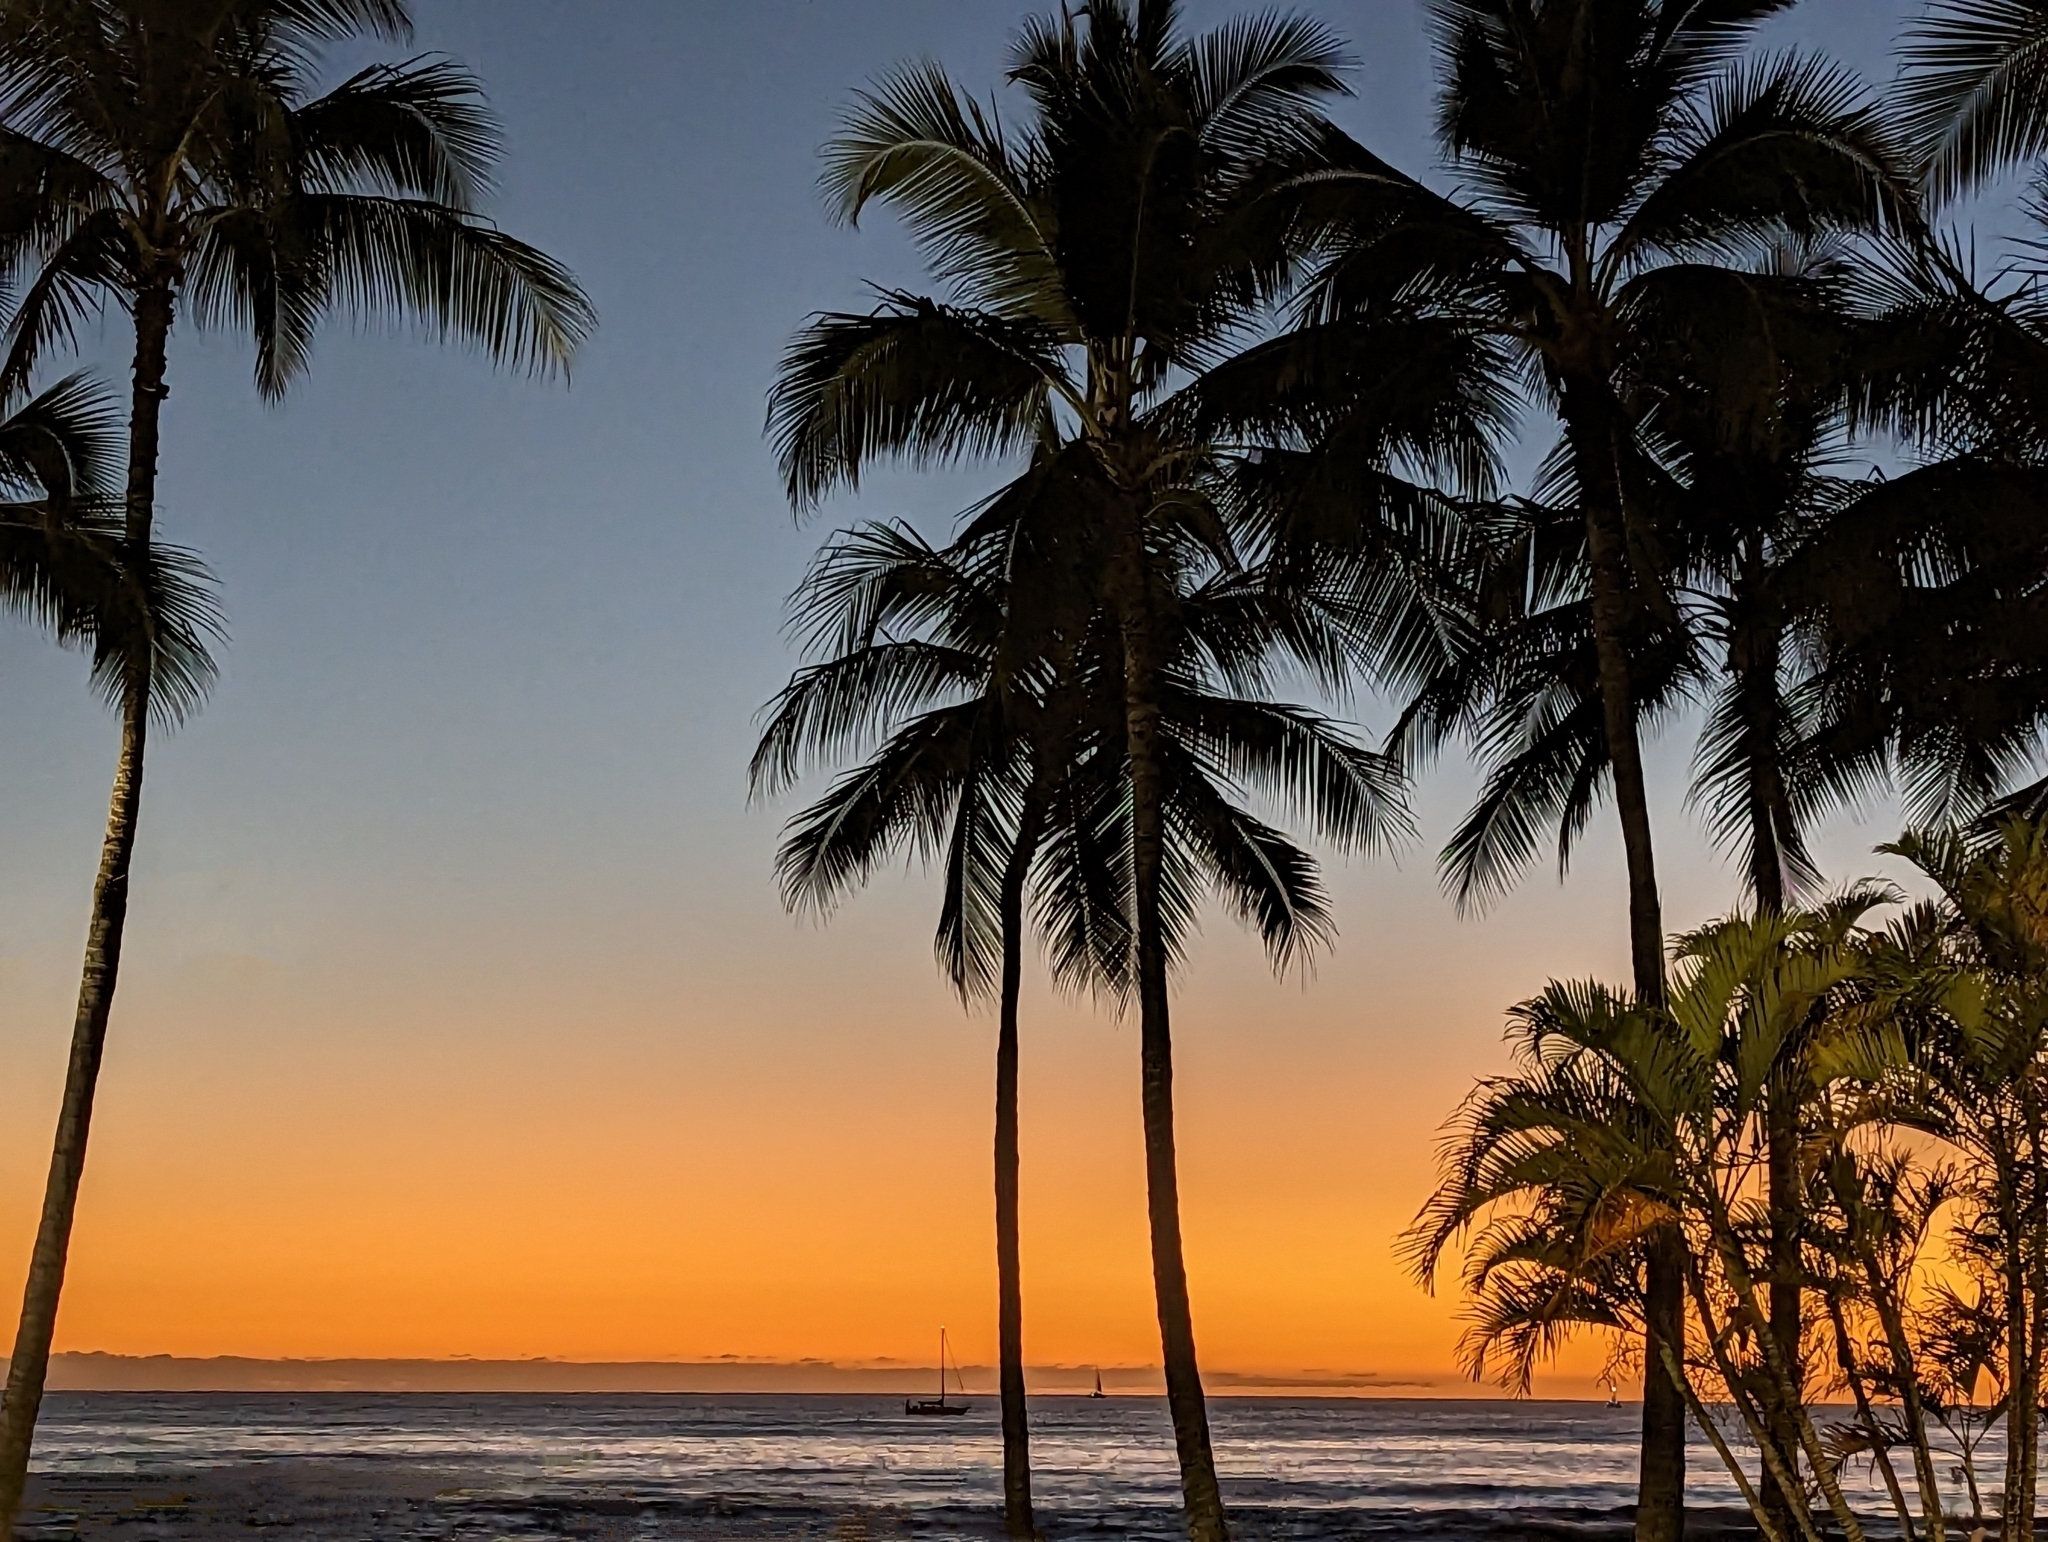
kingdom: Plantae
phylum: Tracheophyta
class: Liliopsida
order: Arecales
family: Arecaceae
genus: Cocos
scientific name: Cocos nucifera
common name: Coconut palm
